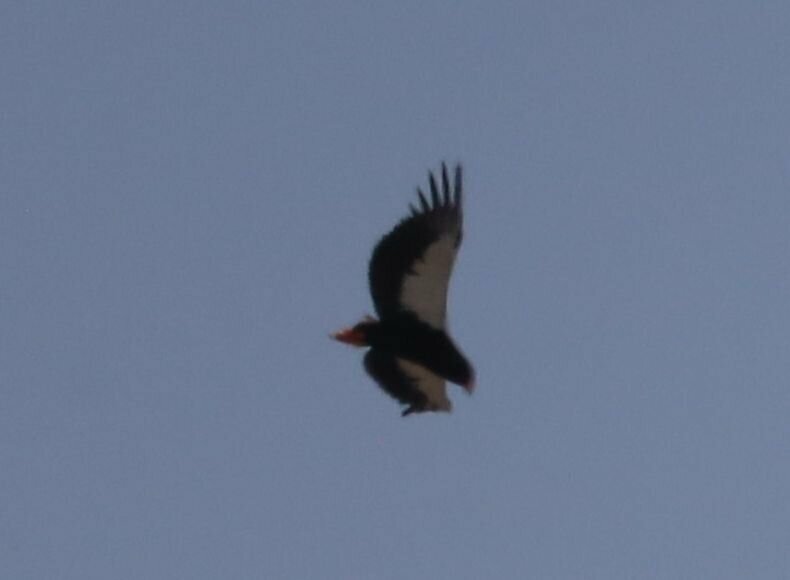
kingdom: Animalia
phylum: Chordata
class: Aves
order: Accipitriformes
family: Accipitridae
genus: Terathopius
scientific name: Terathopius ecaudatus
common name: Bateleur
